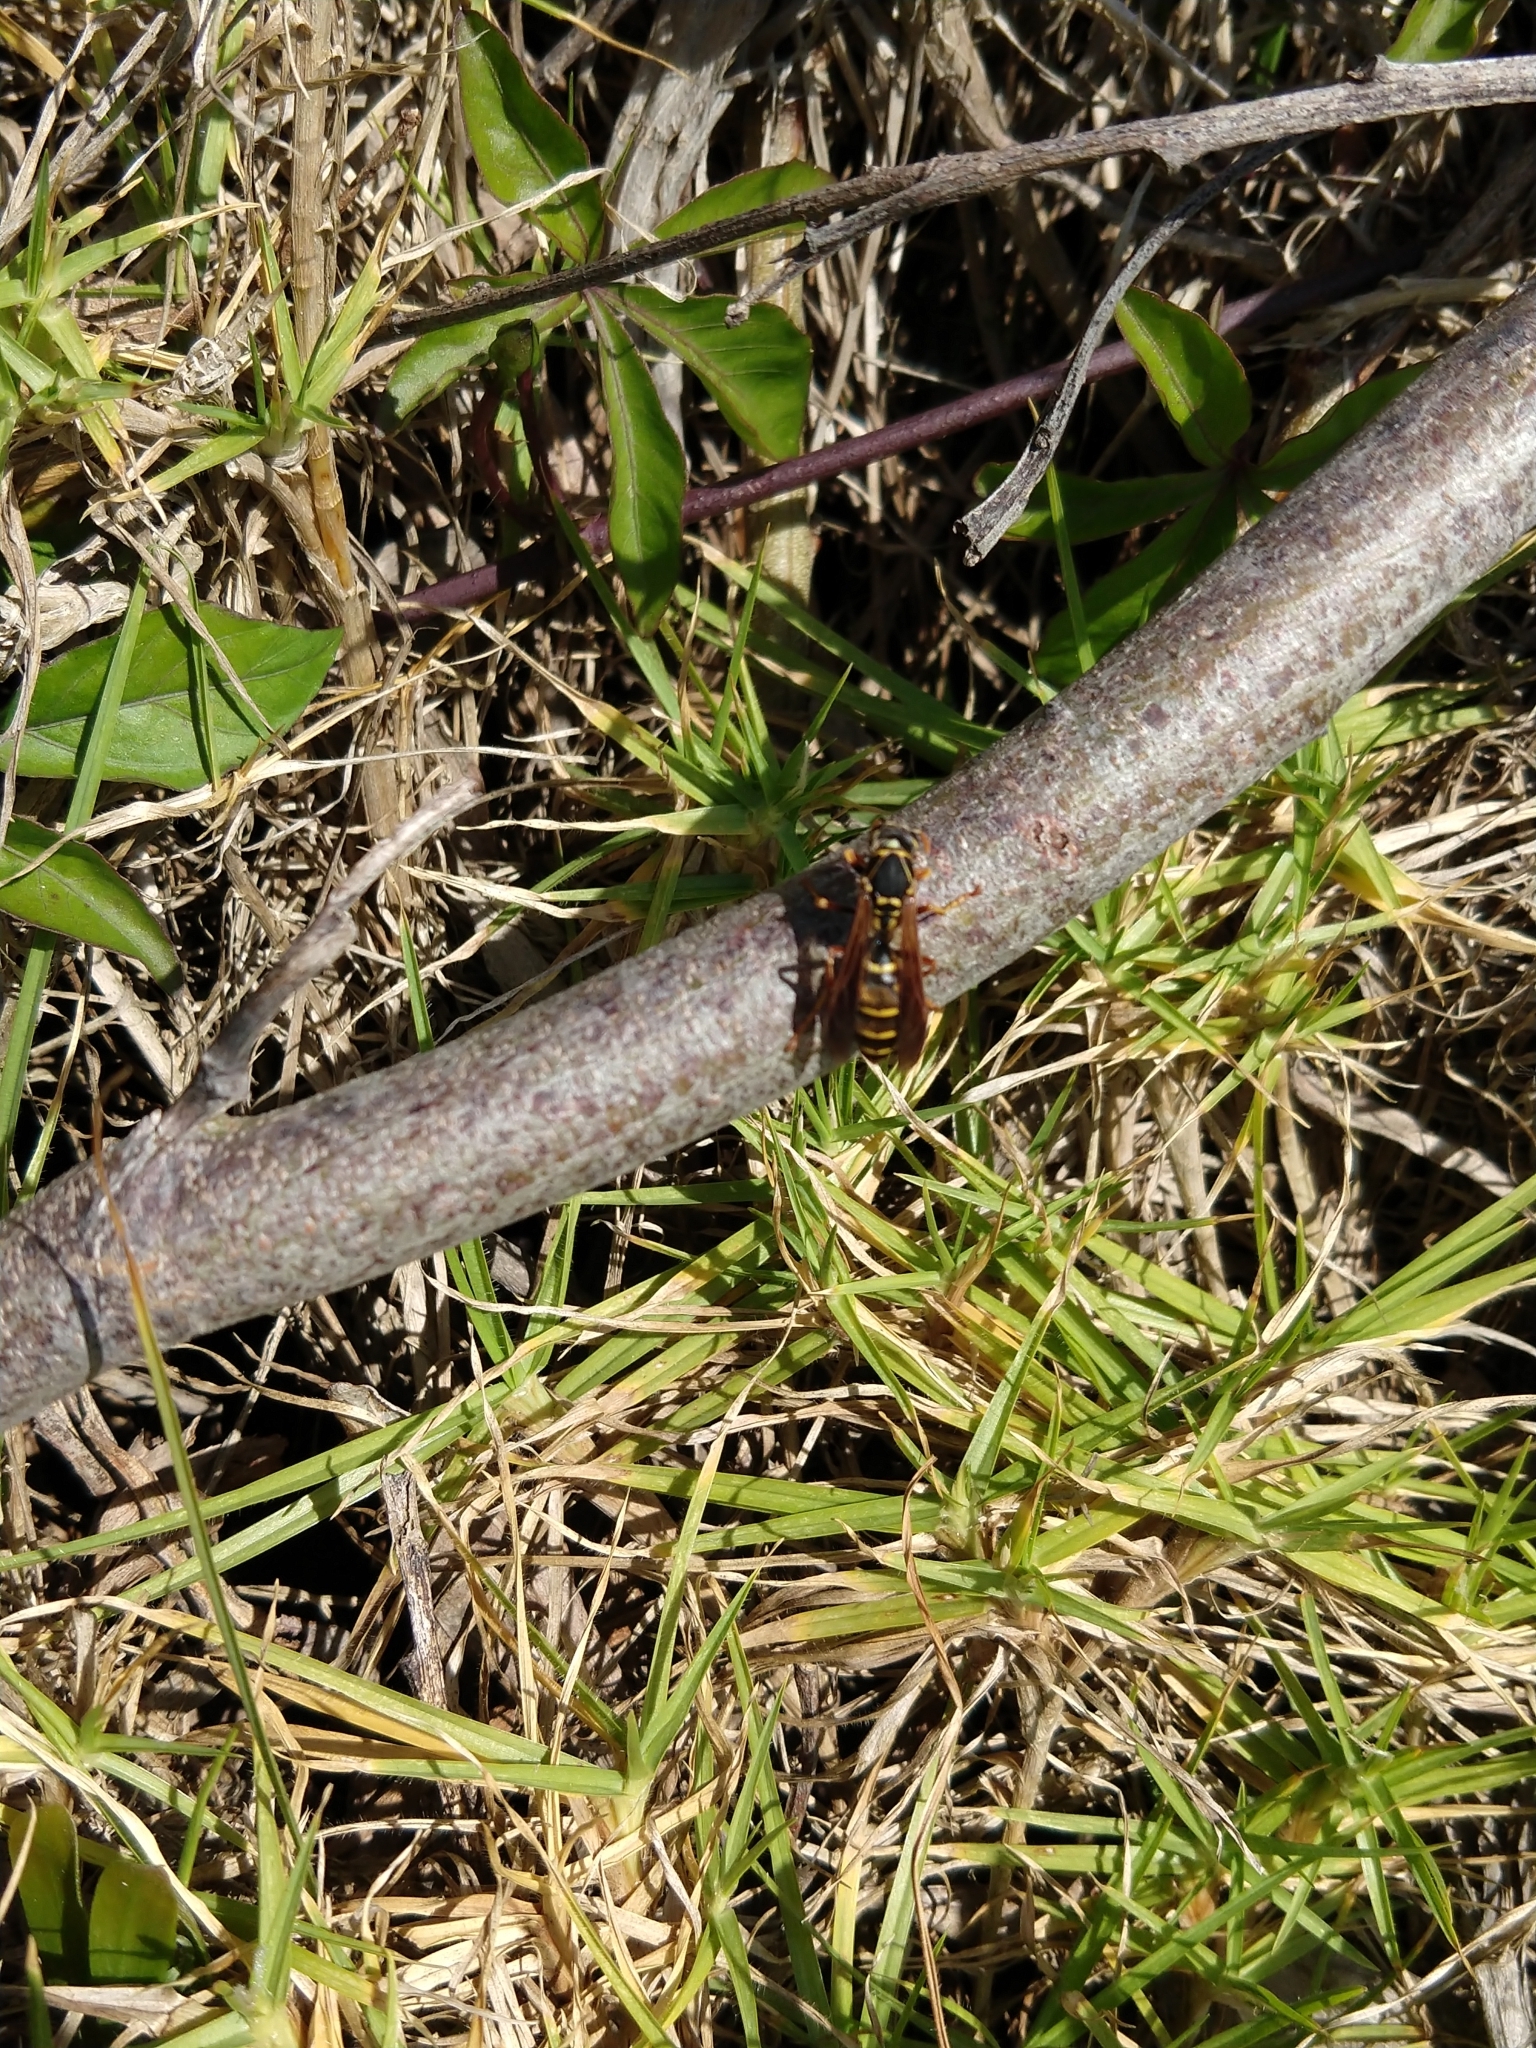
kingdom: Animalia
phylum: Arthropoda
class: Insecta
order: Hymenoptera
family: Eumenidae
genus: Polistes
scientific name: Polistes chinensis
